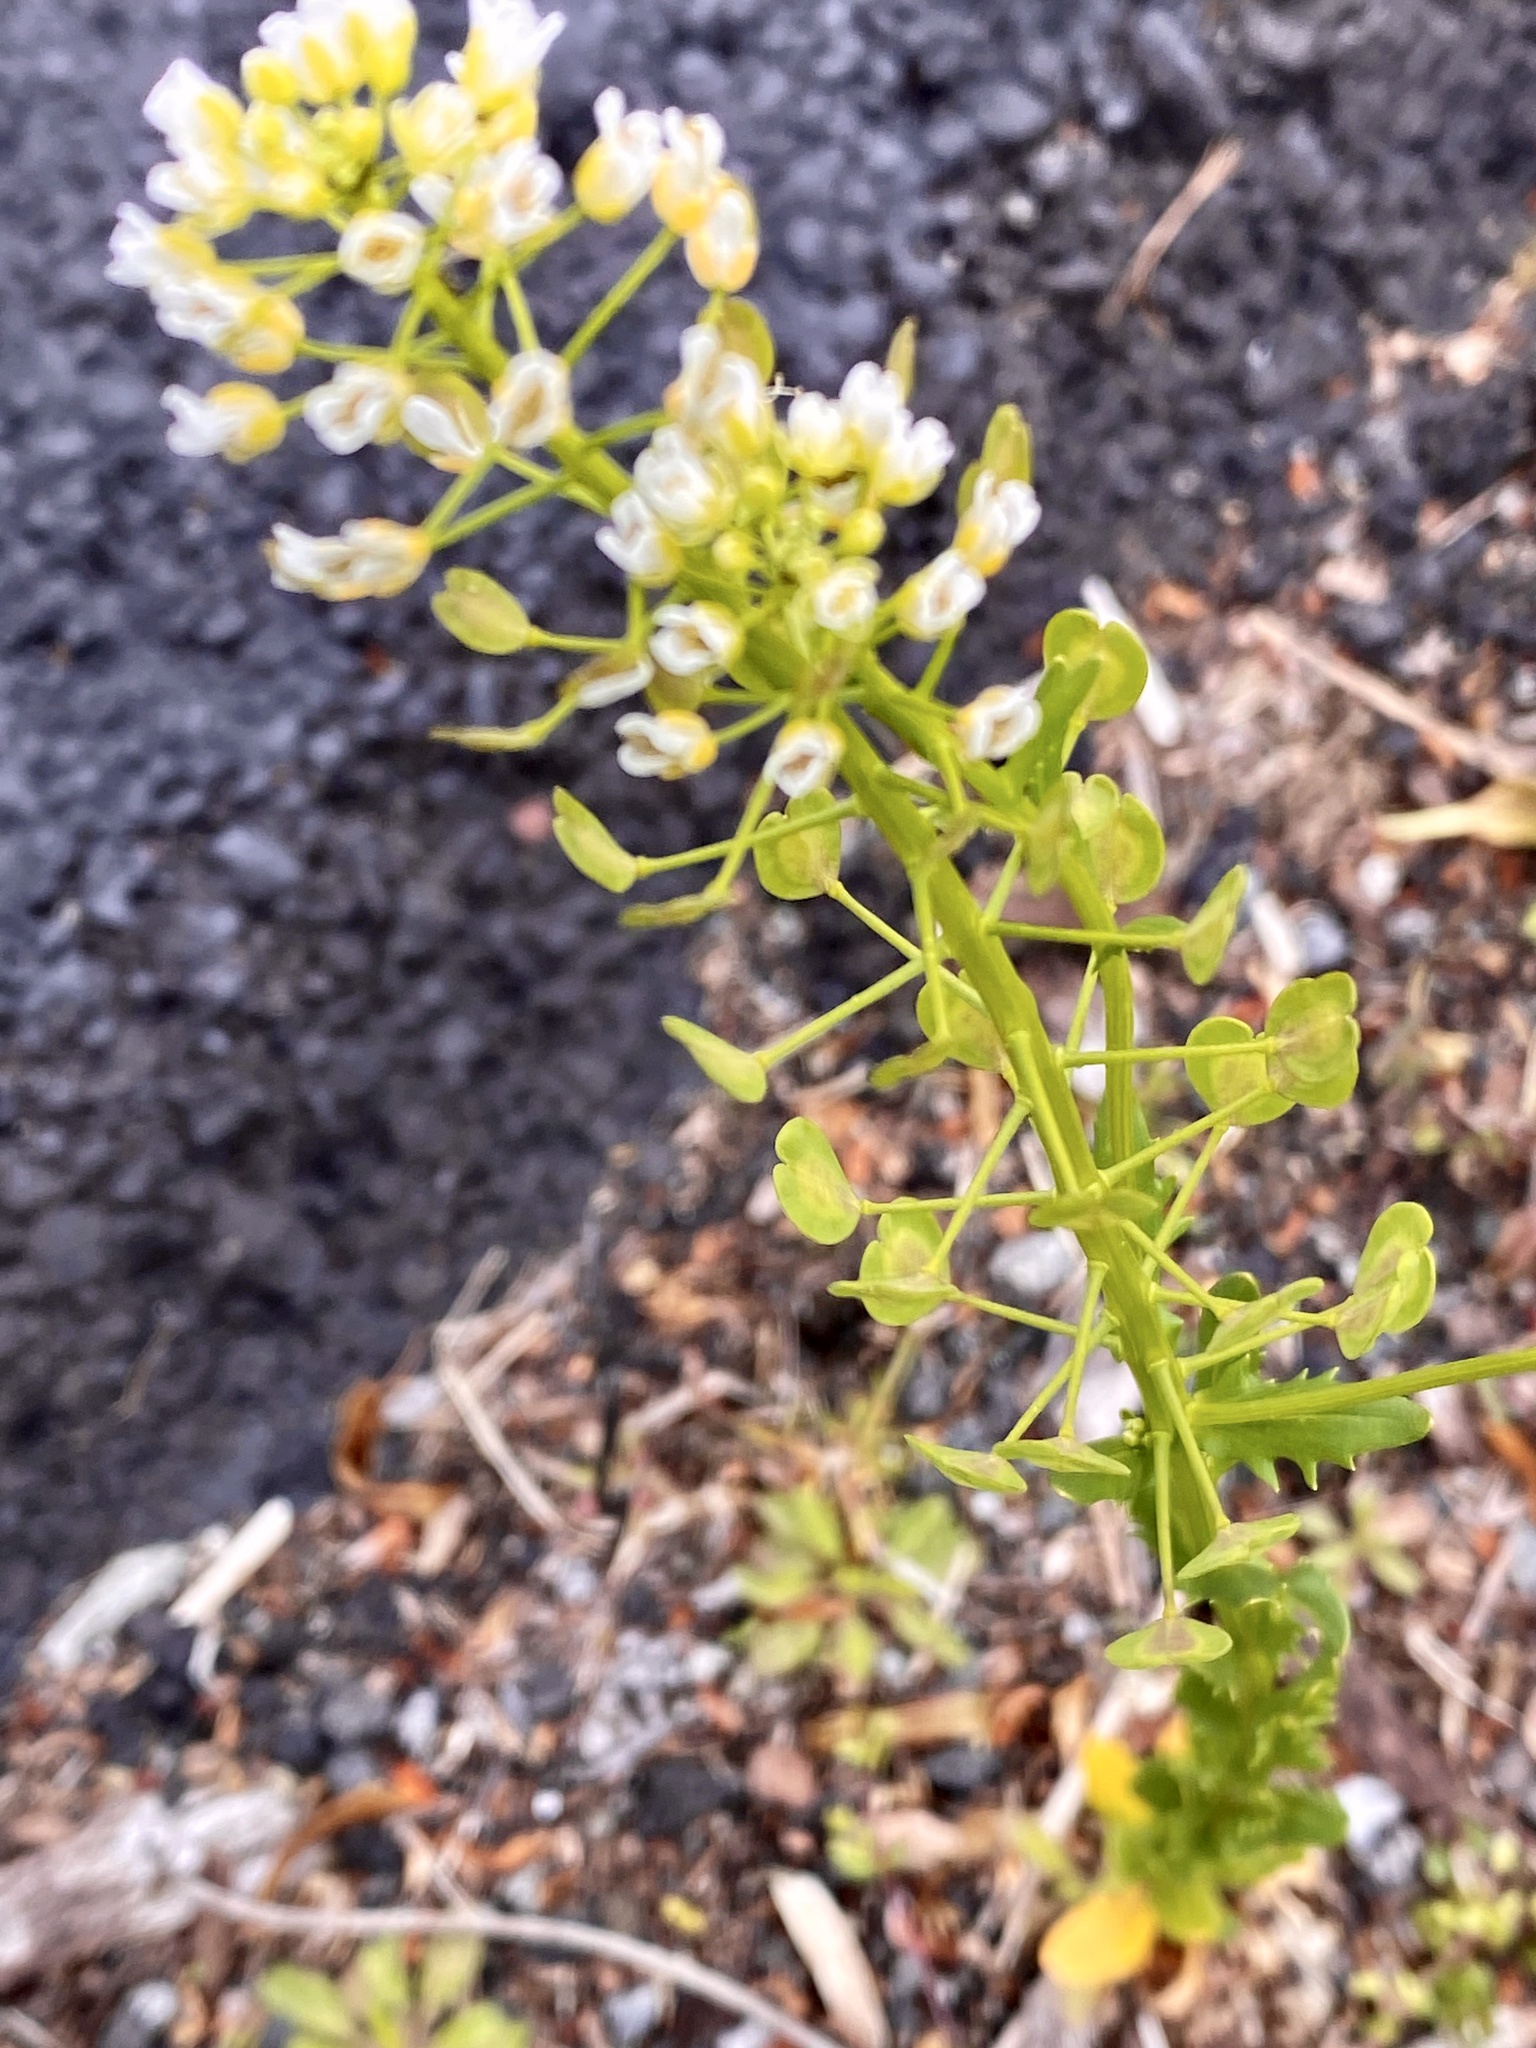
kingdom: Plantae
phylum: Tracheophyta
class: Magnoliopsida
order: Brassicales
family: Brassicaceae
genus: Thlaspi
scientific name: Thlaspi arvense
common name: Field pennycress
